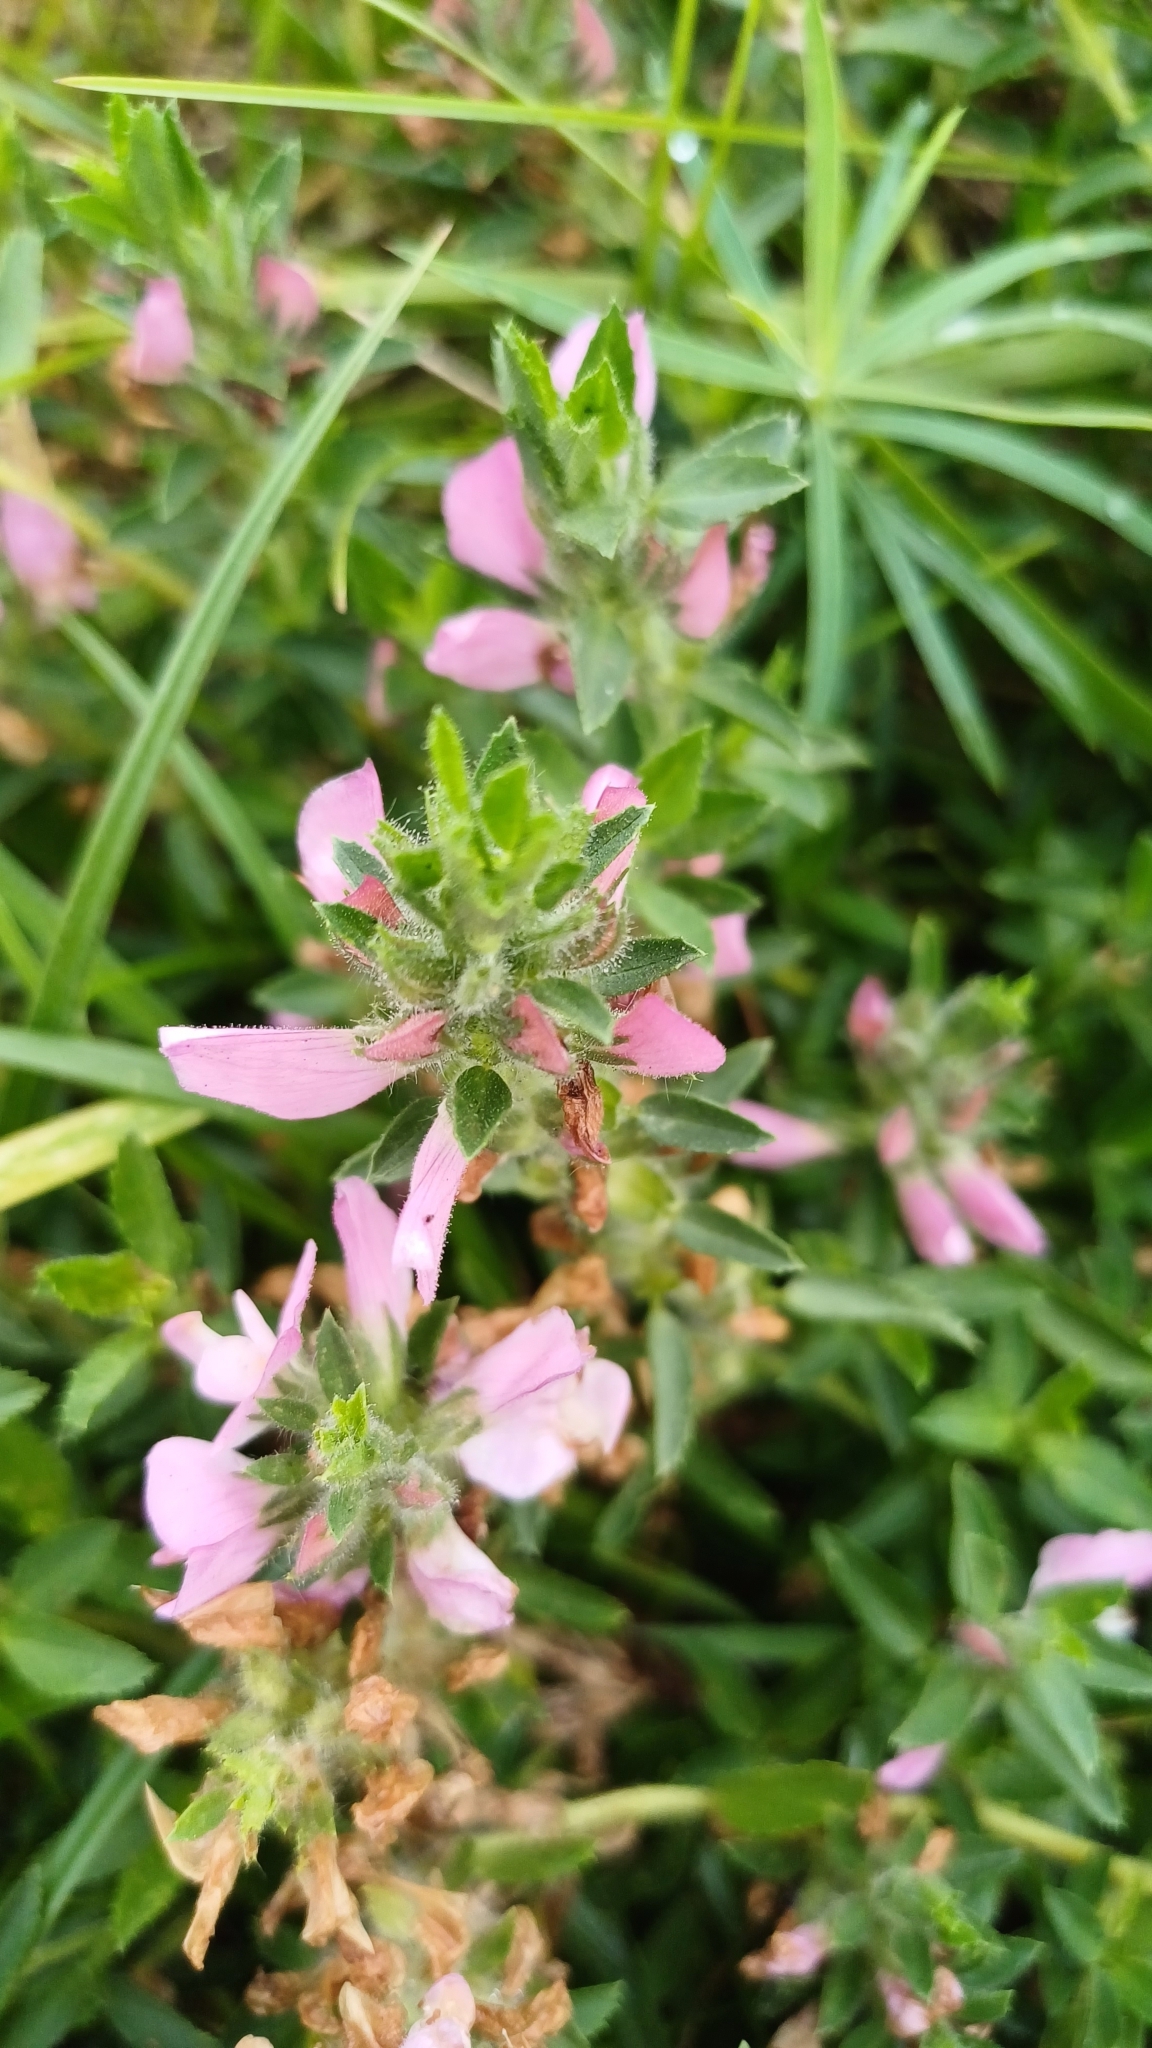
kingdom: Plantae
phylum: Tracheophyta
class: Magnoliopsida
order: Fabales
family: Fabaceae
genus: Ononis
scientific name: Ononis arvensis
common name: Field restharrow
